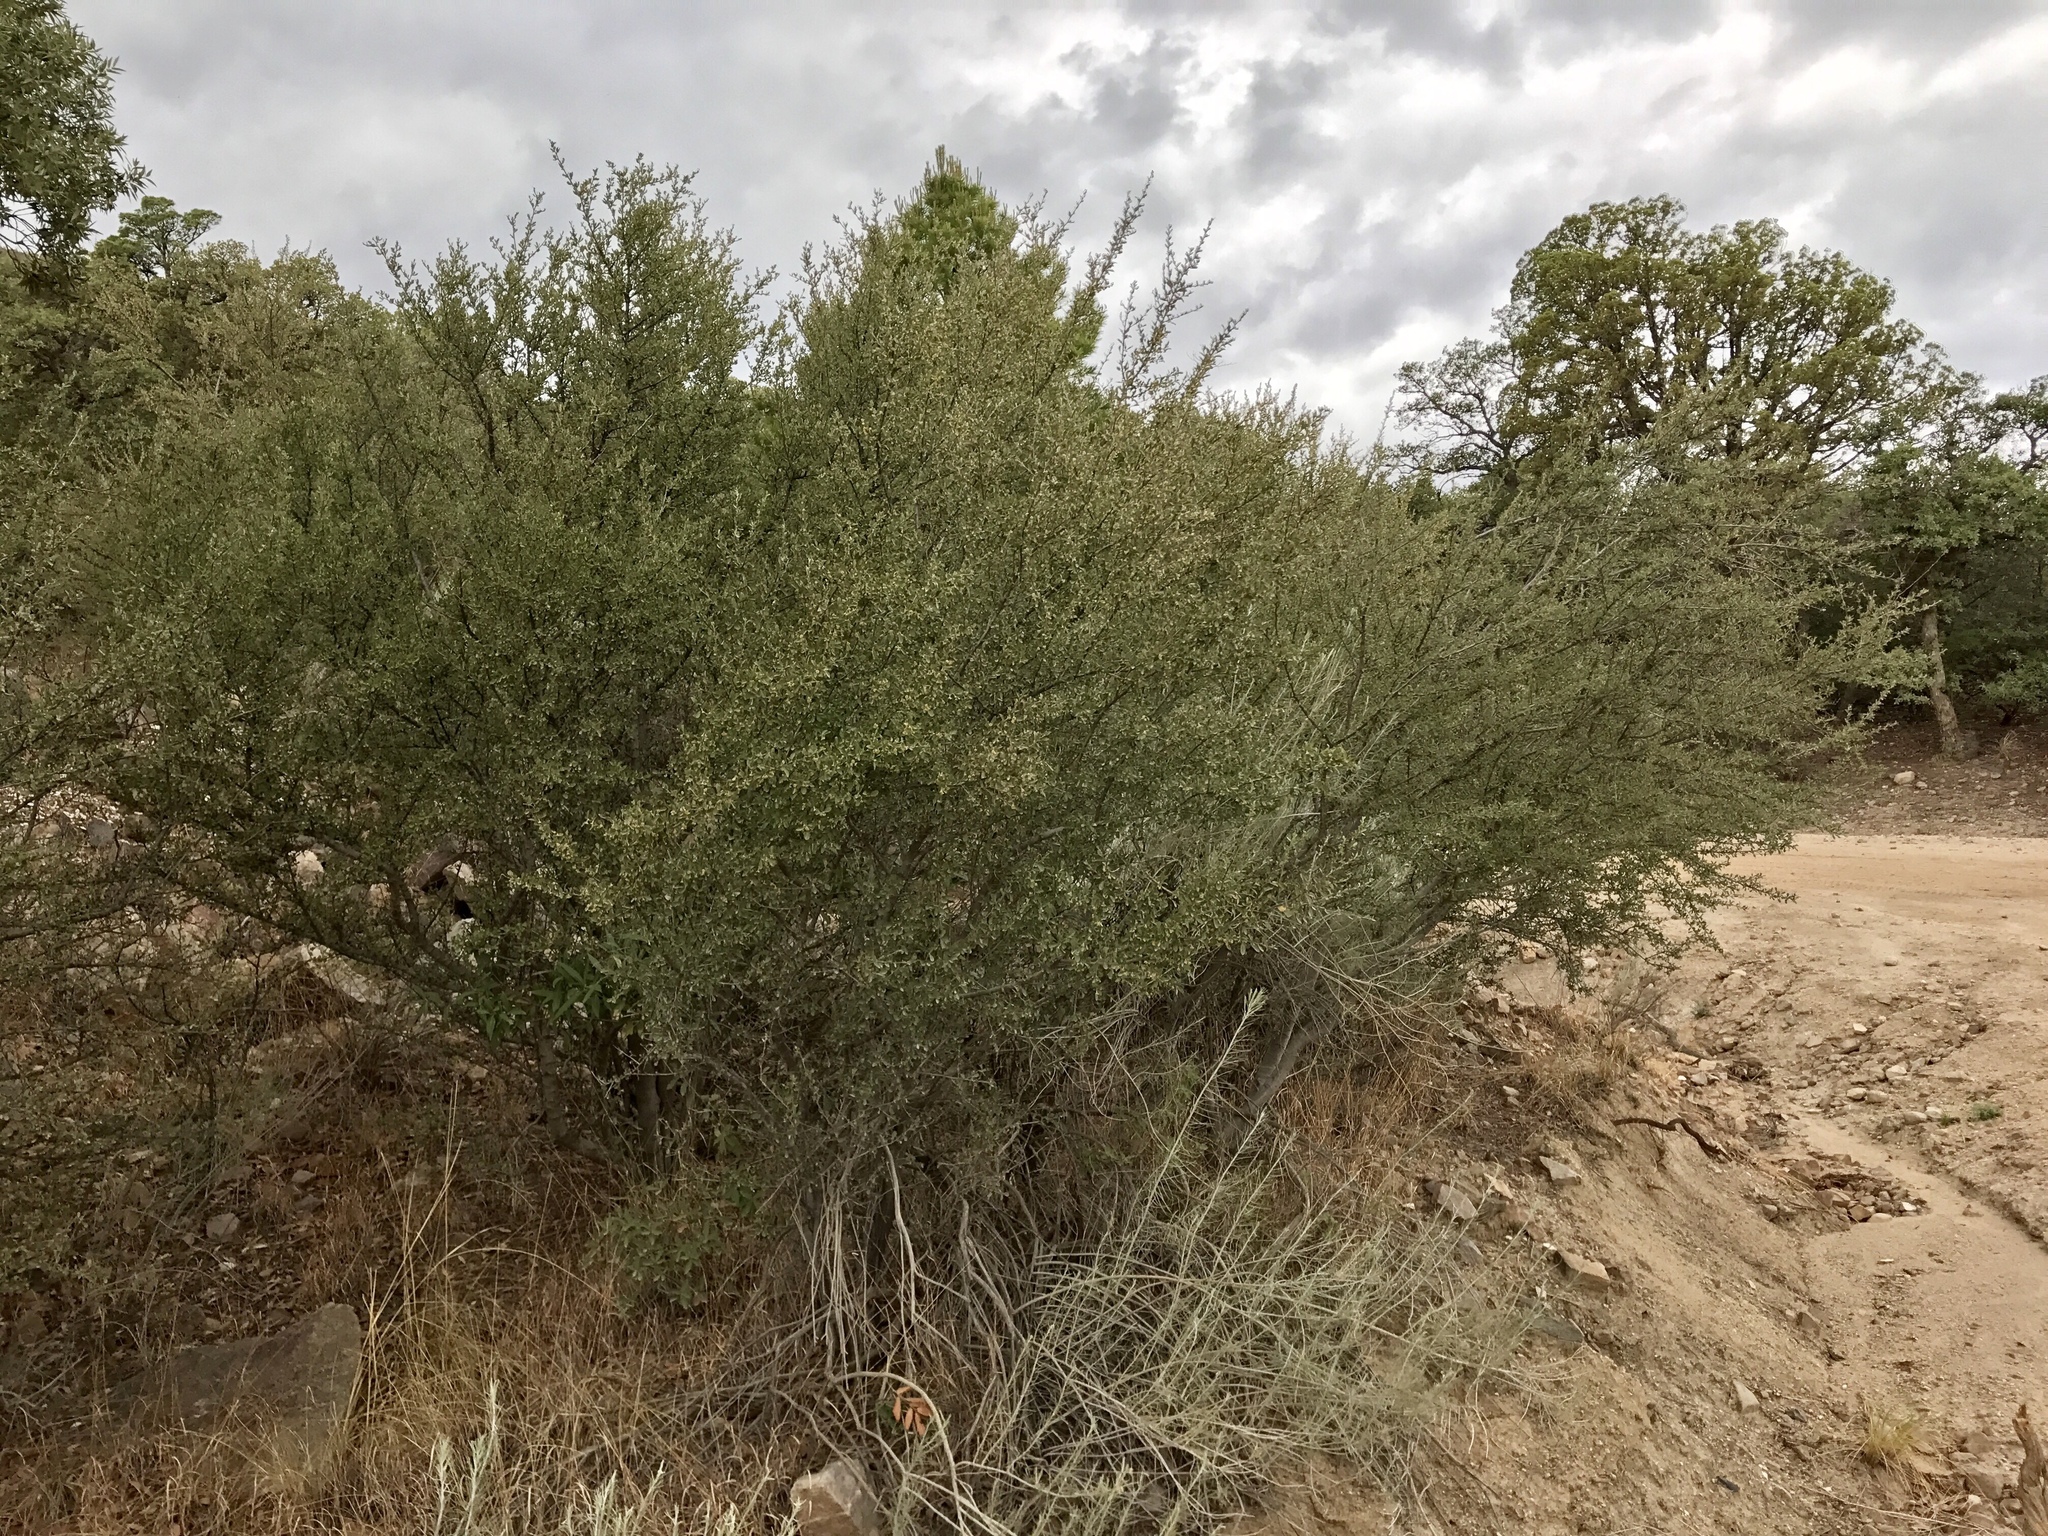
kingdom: Plantae
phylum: Tracheophyta
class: Magnoliopsida
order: Solanales
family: Solanaceae
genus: Lycium
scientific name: Lycium berlandieri
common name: Berlandier wolfberry
